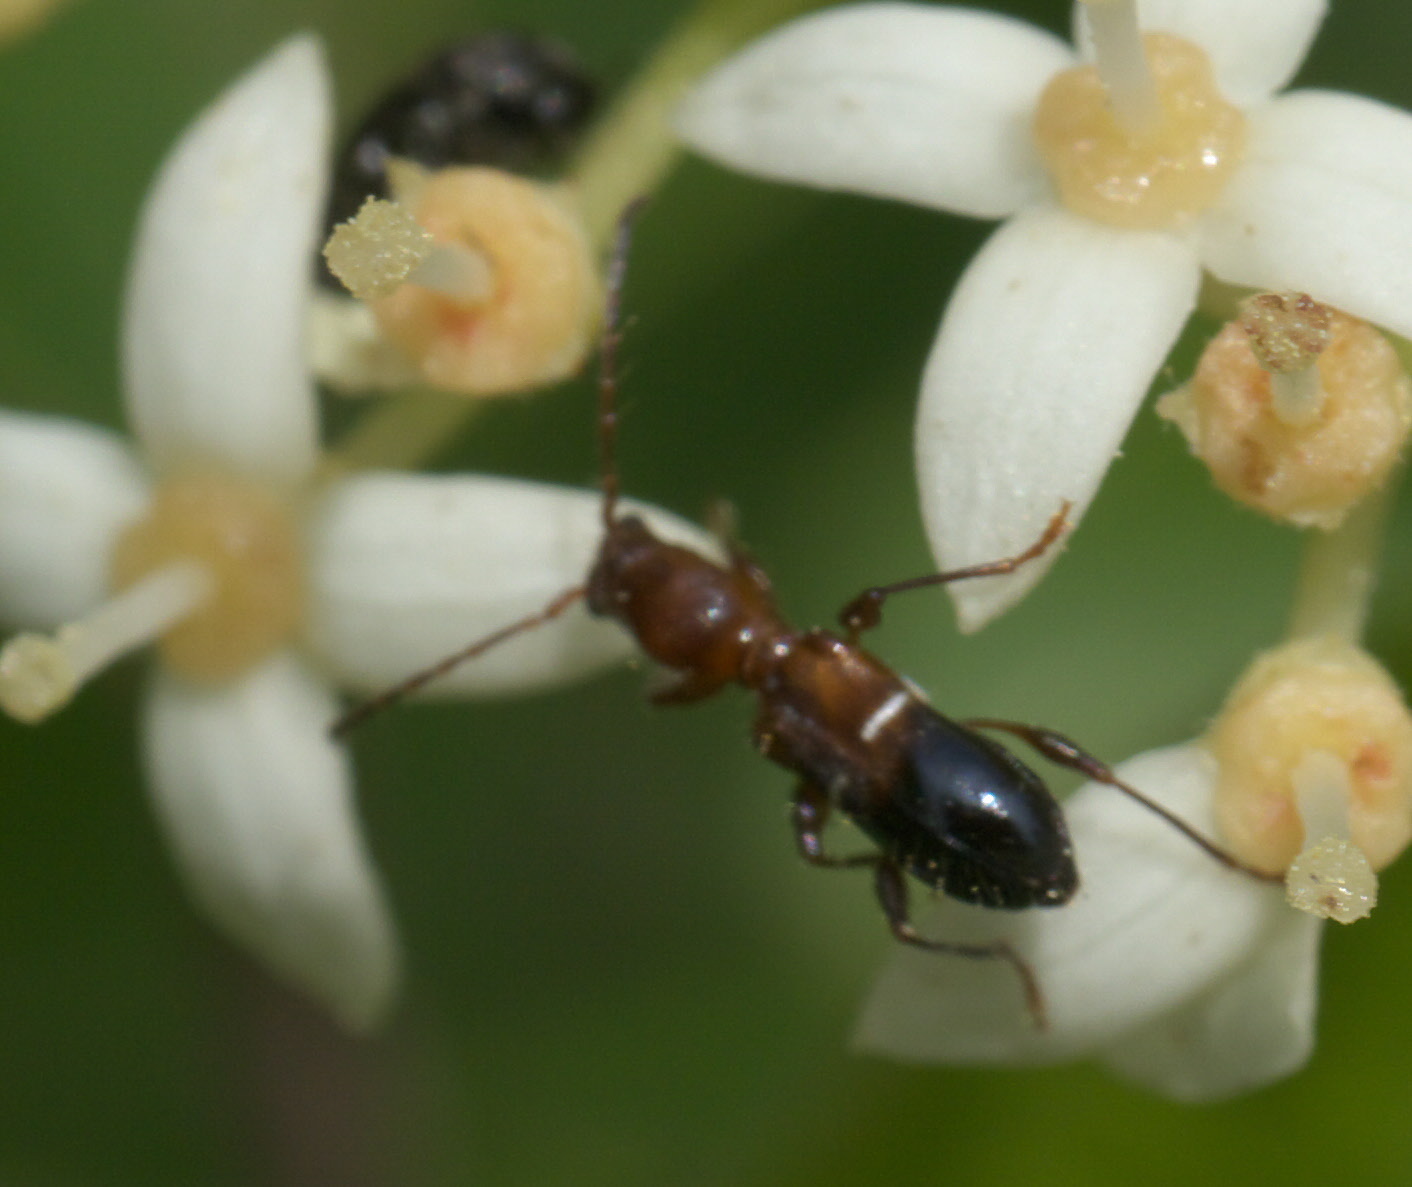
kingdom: Animalia
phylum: Arthropoda
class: Insecta
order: Coleoptera
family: Cerambycidae
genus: Euderces
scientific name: Euderces reichei
